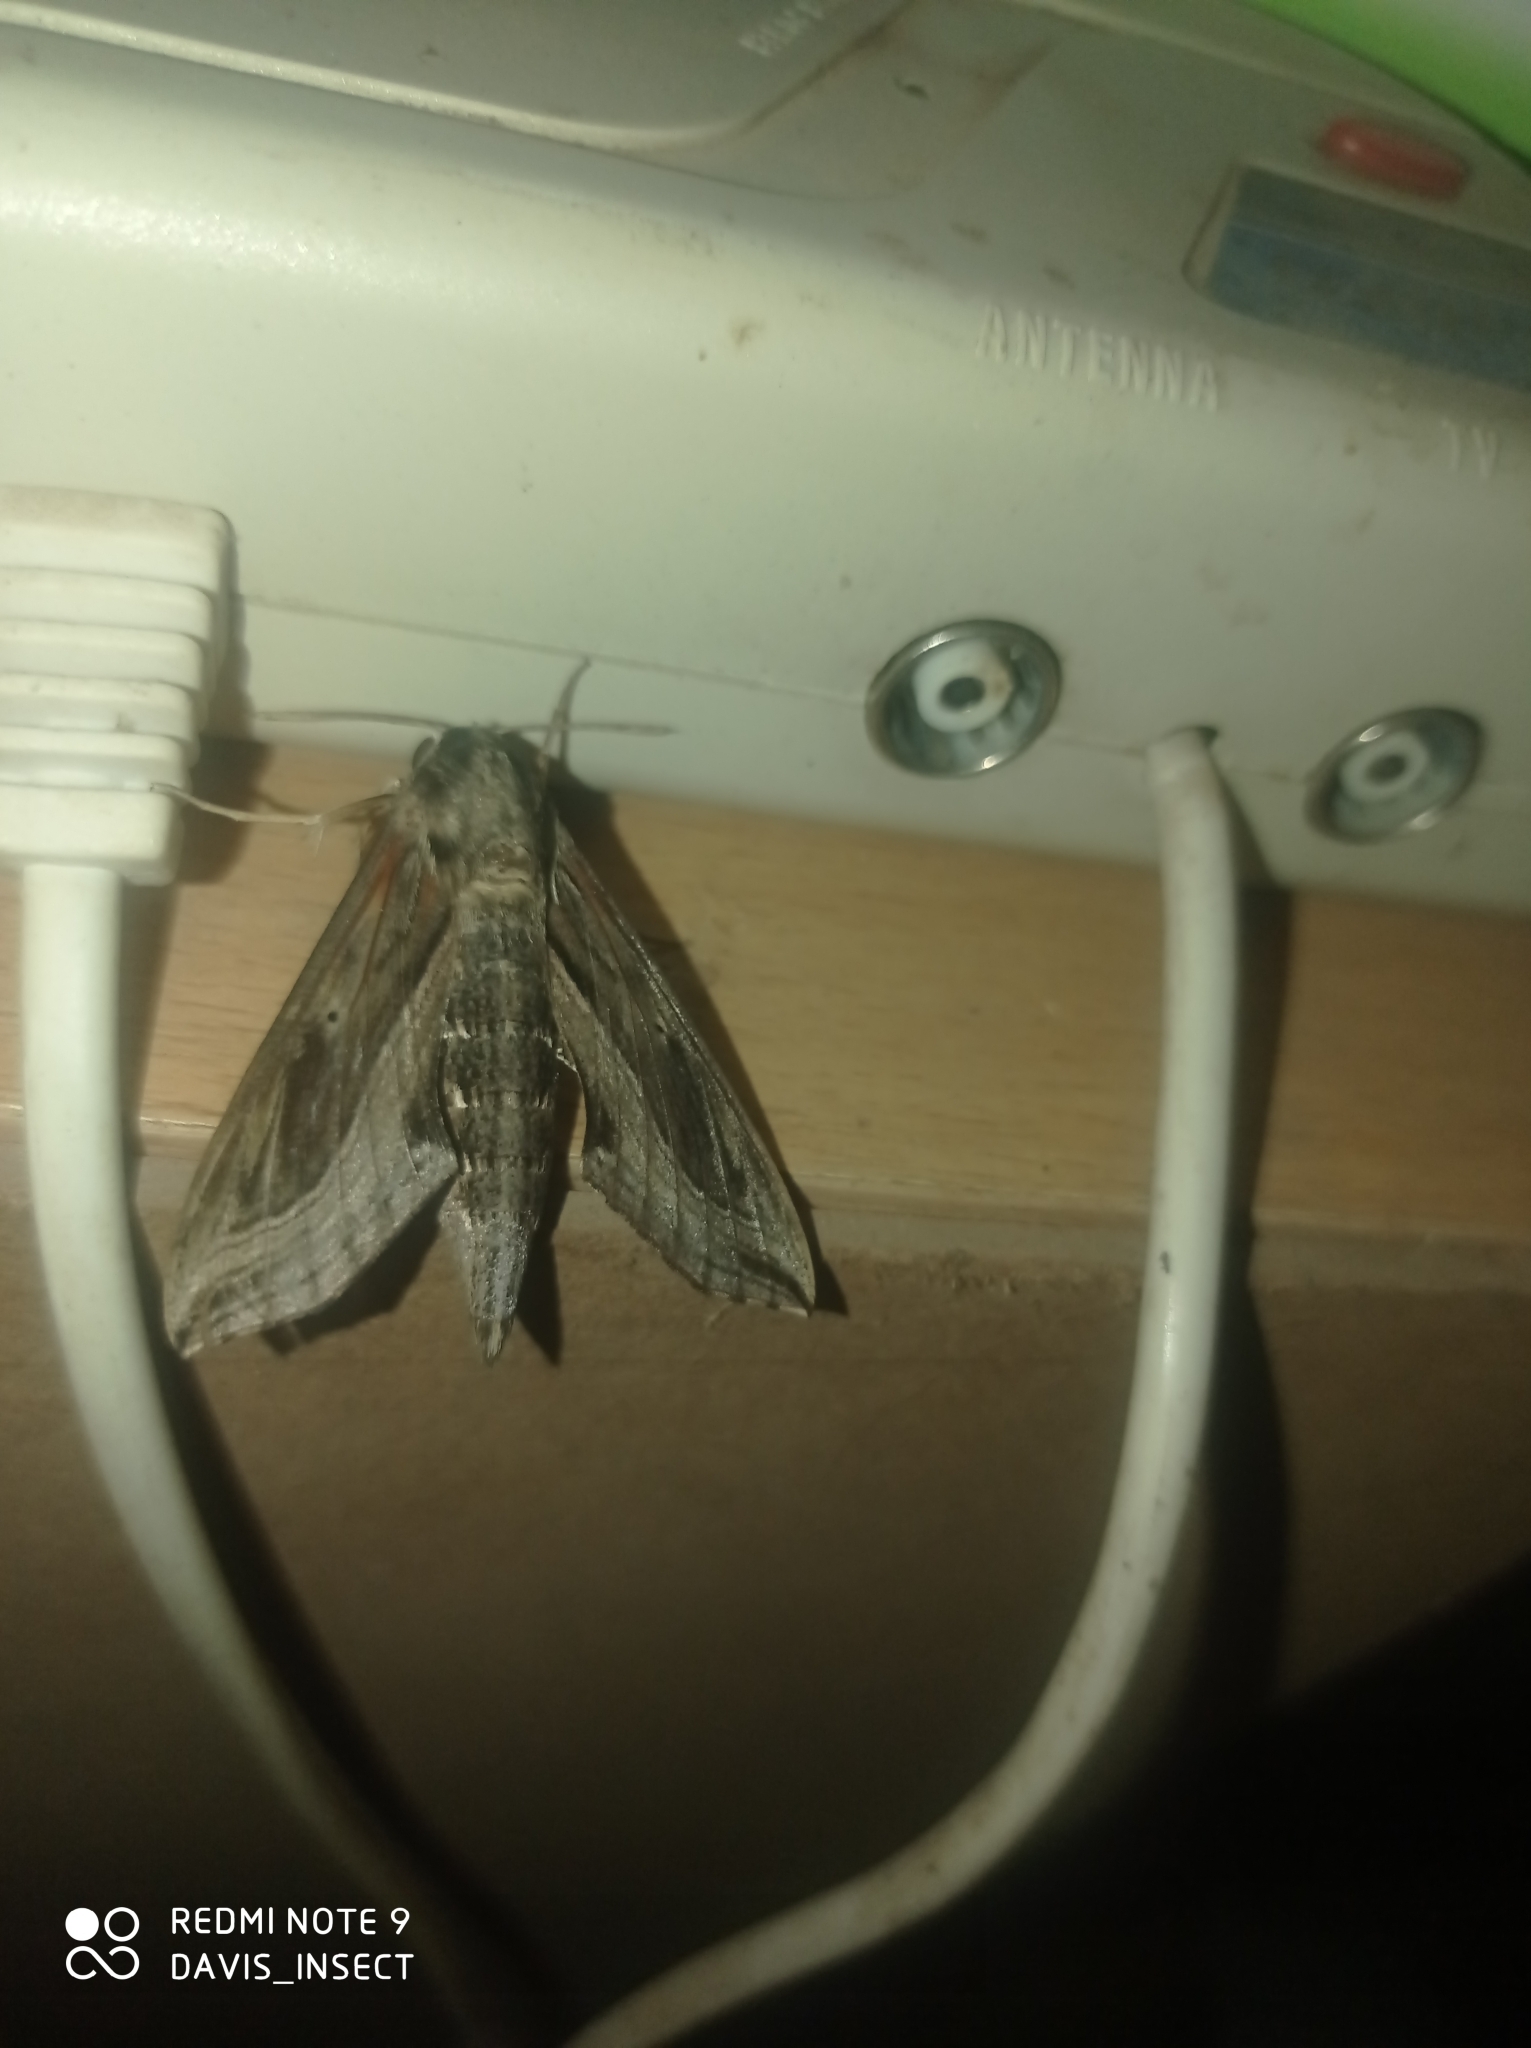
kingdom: Animalia
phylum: Arthropoda
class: Insecta
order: Lepidoptera
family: Sphingidae
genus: Hippotion
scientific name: Hippotion velox
